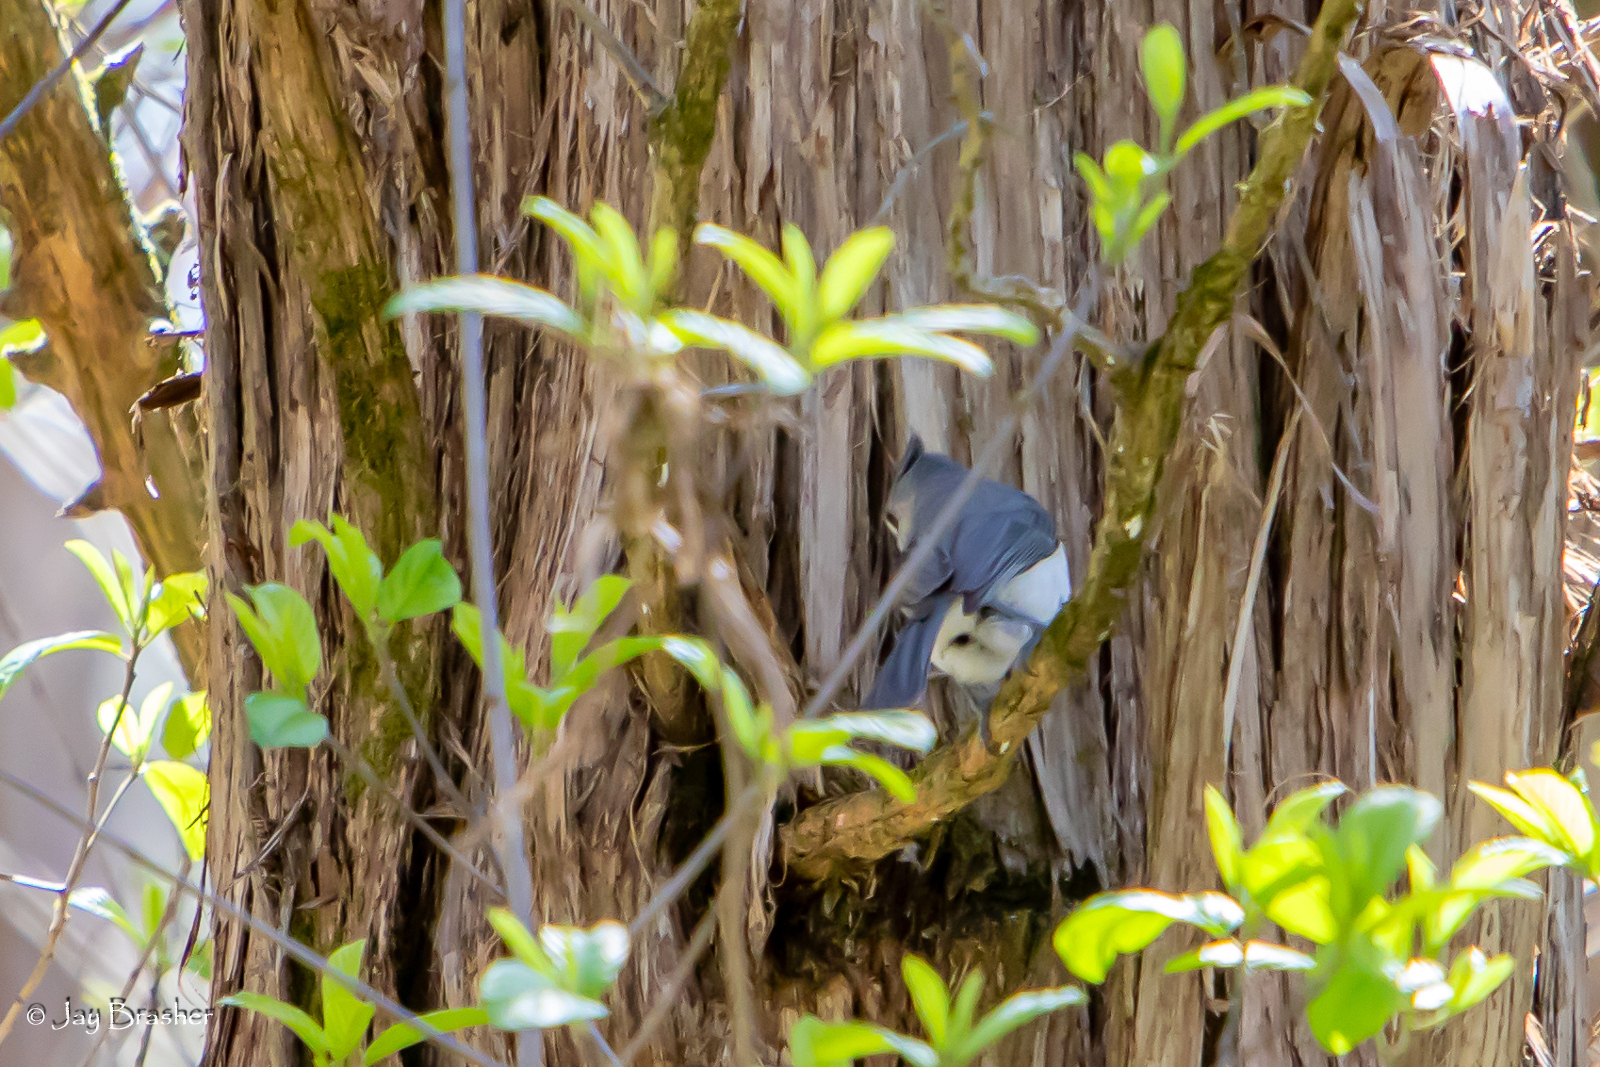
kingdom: Animalia
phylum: Chordata
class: Aves
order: Passeriformes
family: Paridae
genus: Baeolophus
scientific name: Baeolophus bicolor
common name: Tufted titmouse
